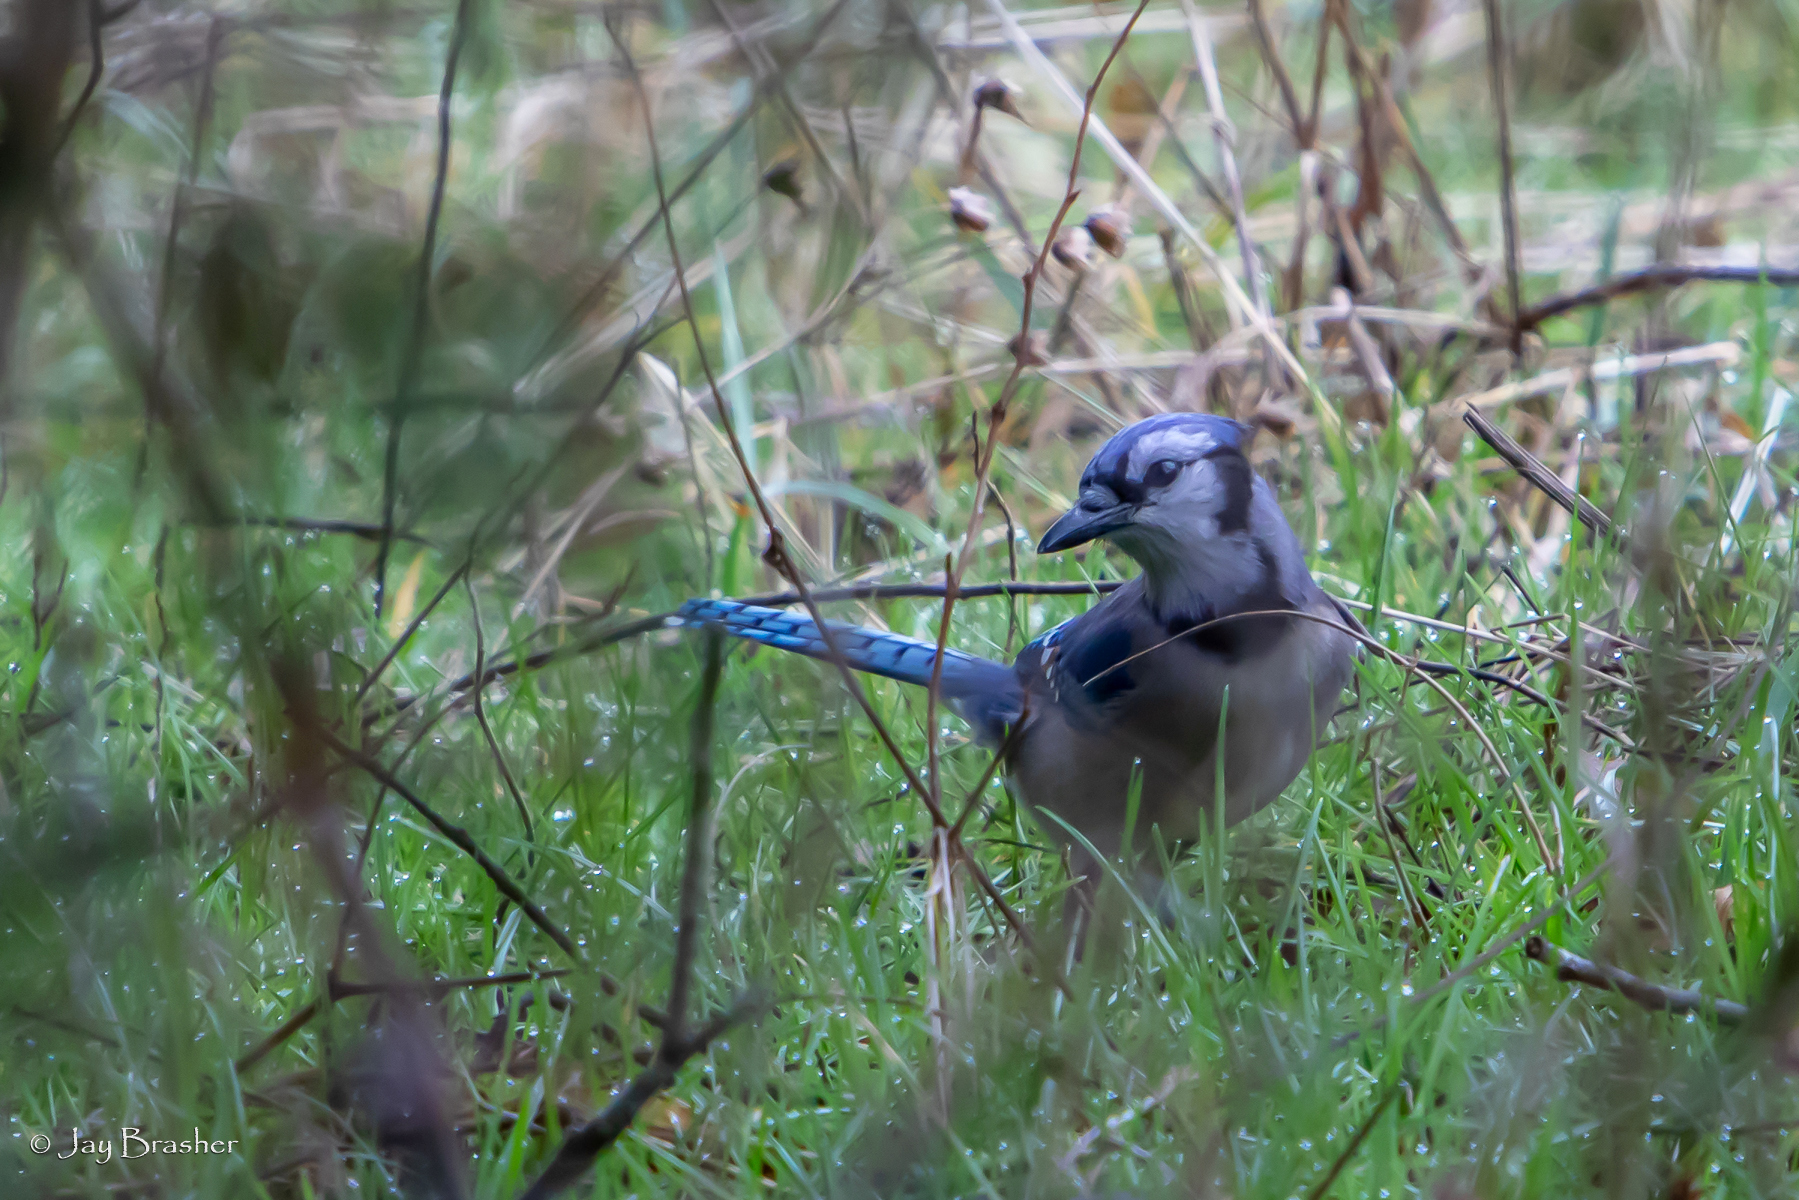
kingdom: Animalia
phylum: Chordata
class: Aves
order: Passeriformes
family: Corvidae
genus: Cyanocitta
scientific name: Cyanocitta cristata
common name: Blue jay
